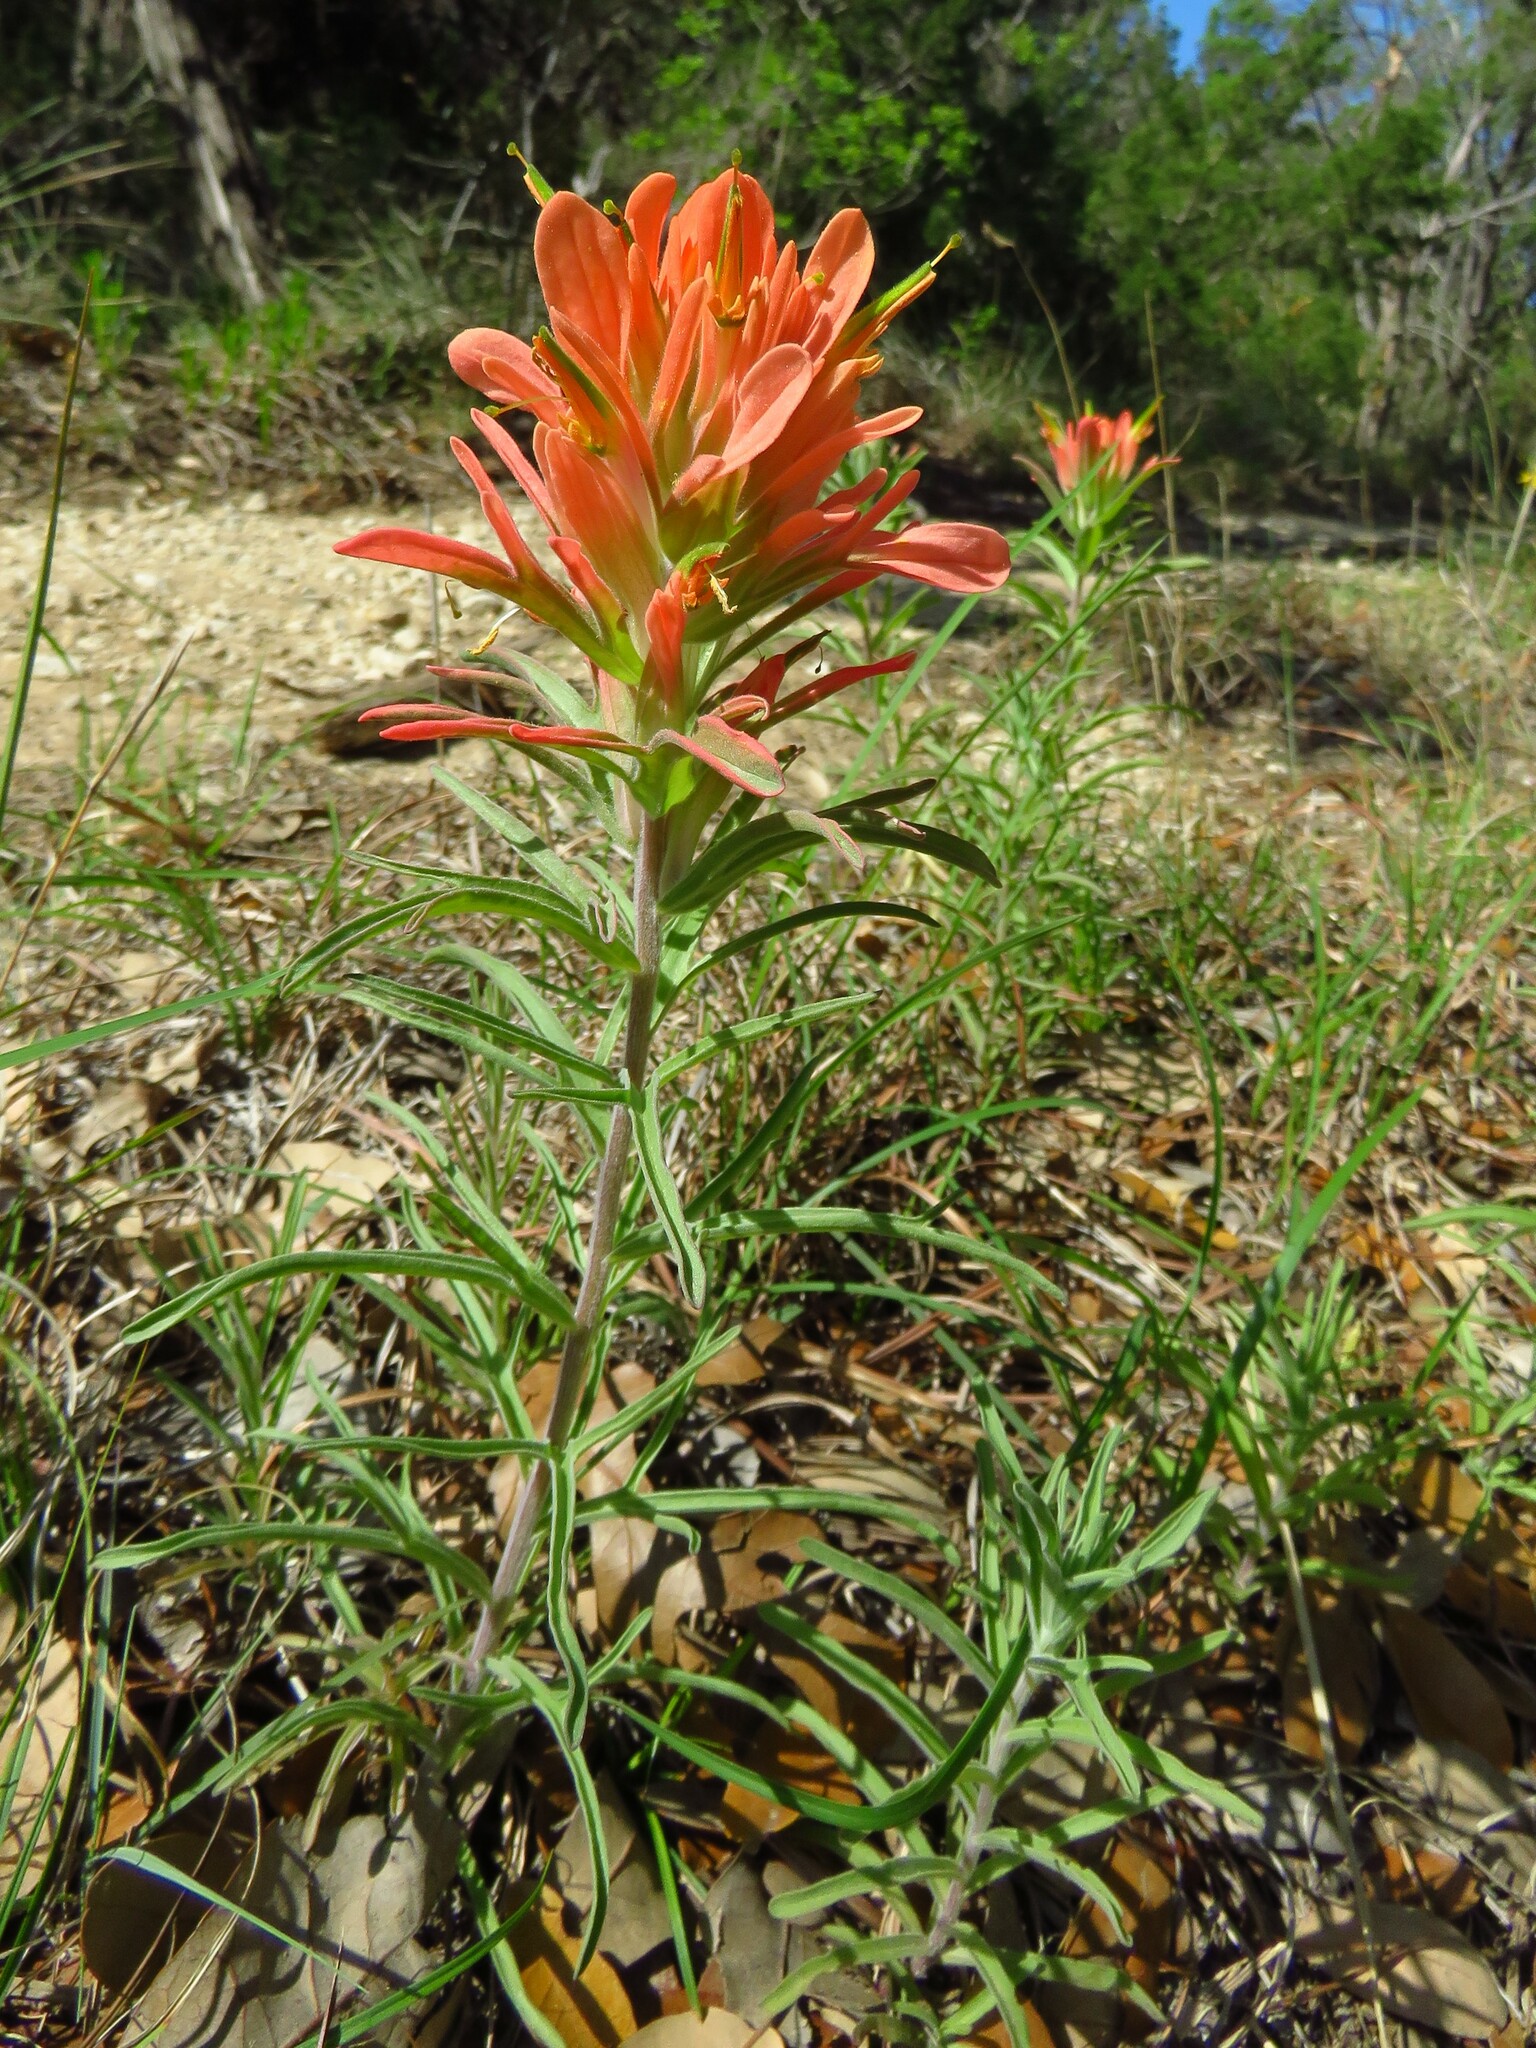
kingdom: Plantae
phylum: Tracheophyta
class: Magnoliopsida
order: Lamiales
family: Orobanchaceae
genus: Castilleja
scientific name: Castilleja lindheimeri
